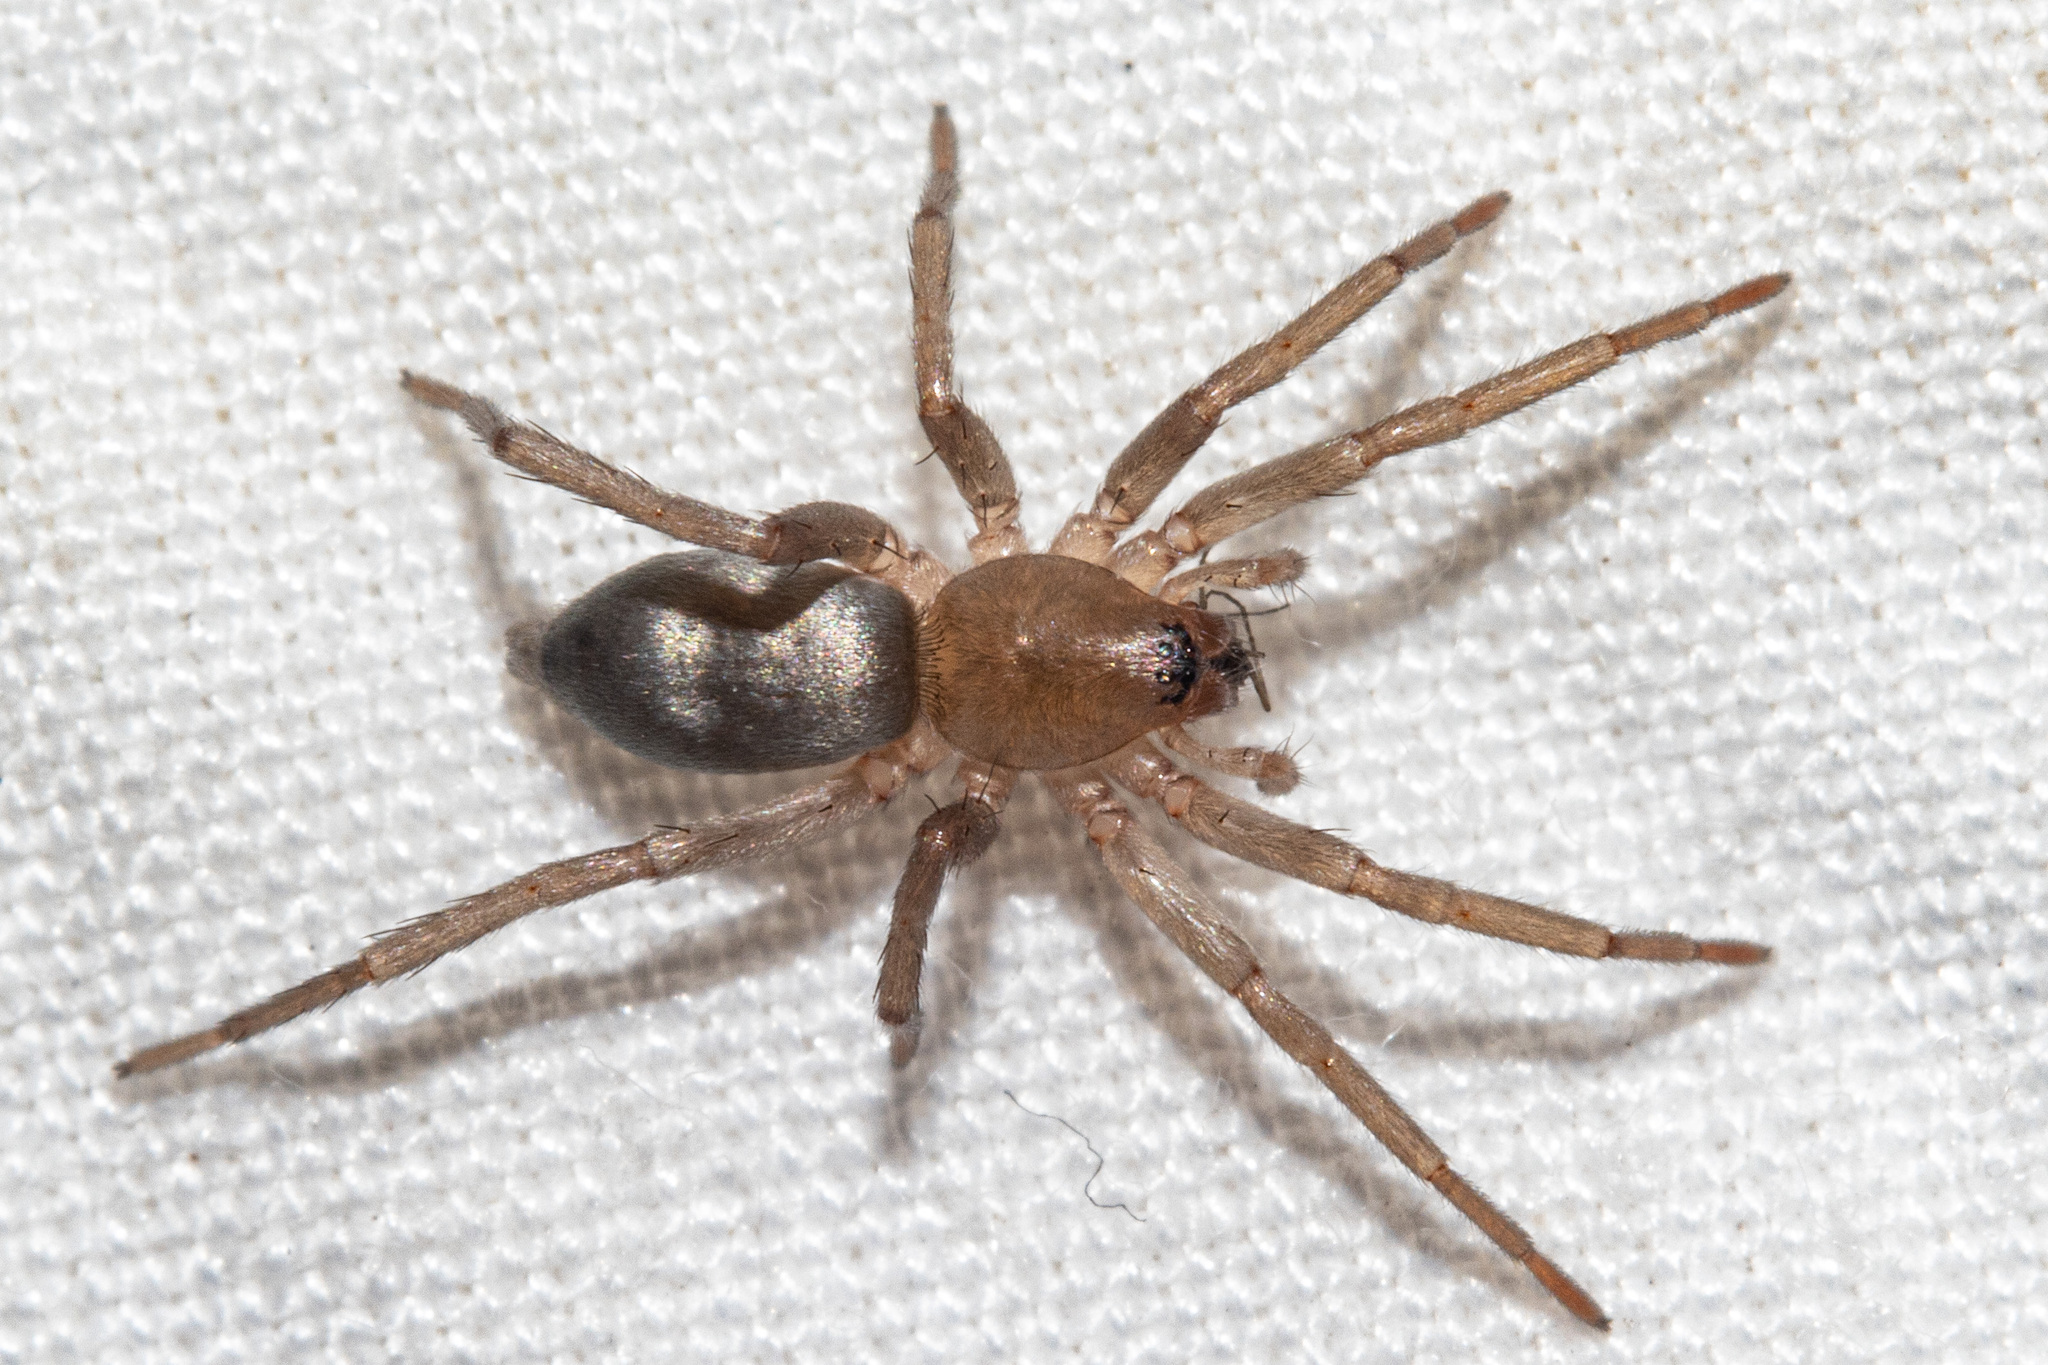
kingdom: Animalia
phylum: Arthropoda
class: Arachnida
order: Araneae
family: Gnaphosidae
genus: Anzacia
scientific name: Anzacia gemmea
